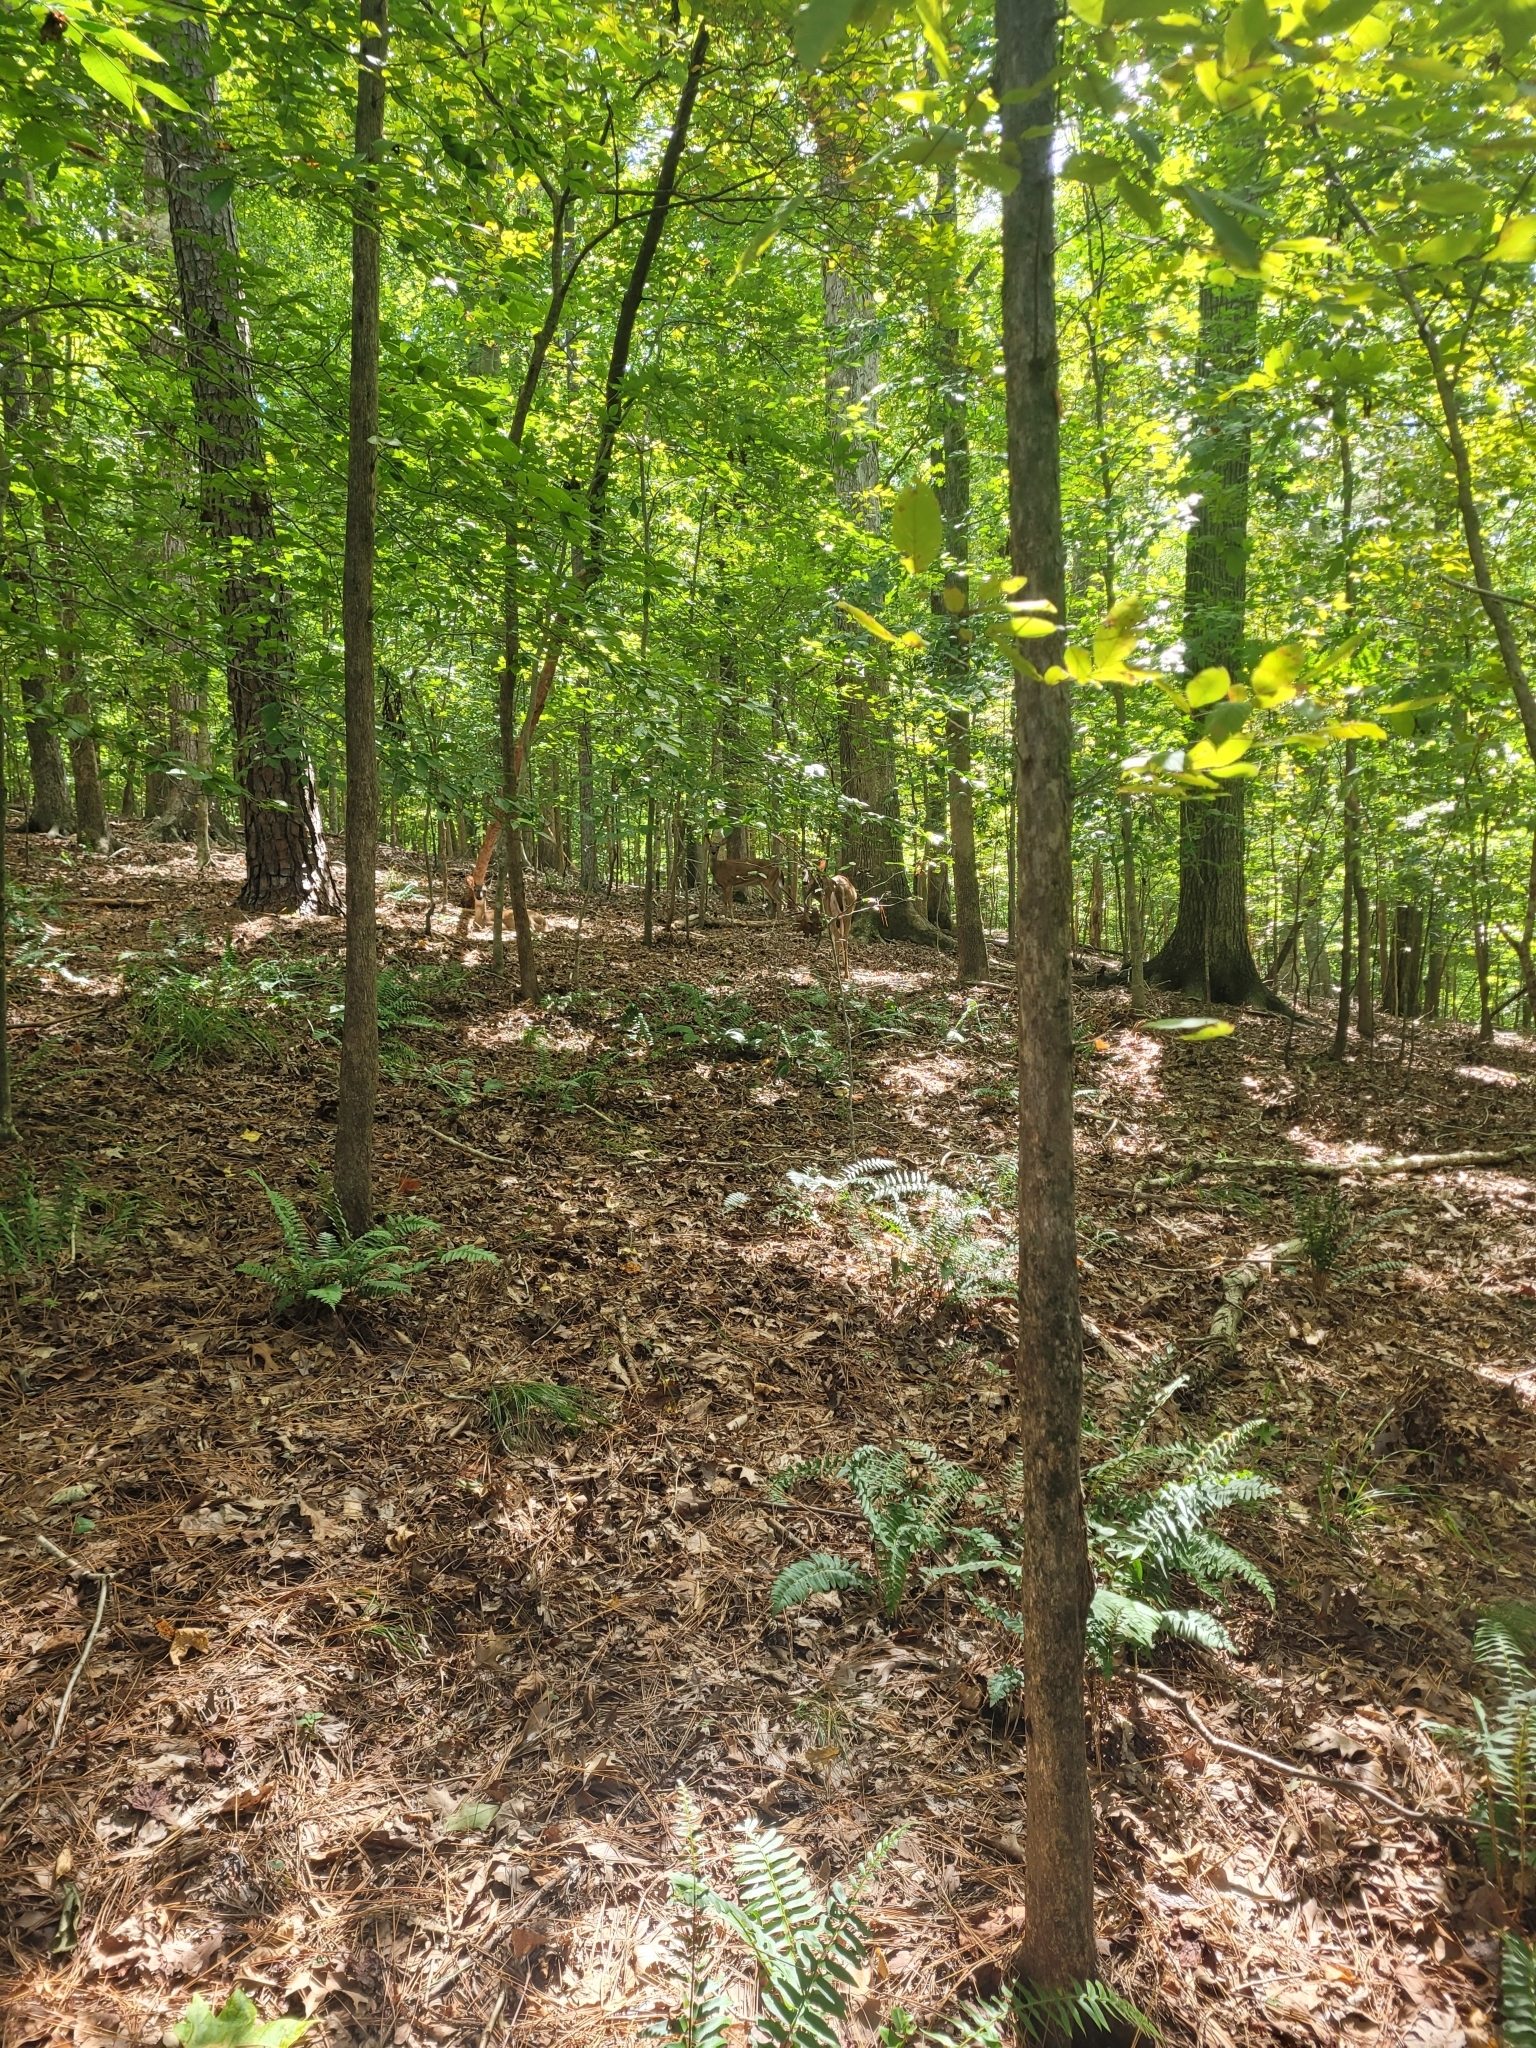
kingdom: Animalia
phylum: Chordata
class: Mammalia
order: Artiodactyla
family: Cervidae
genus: Odocoileus
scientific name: Odocoileus virginianus
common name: White-tailed deer
